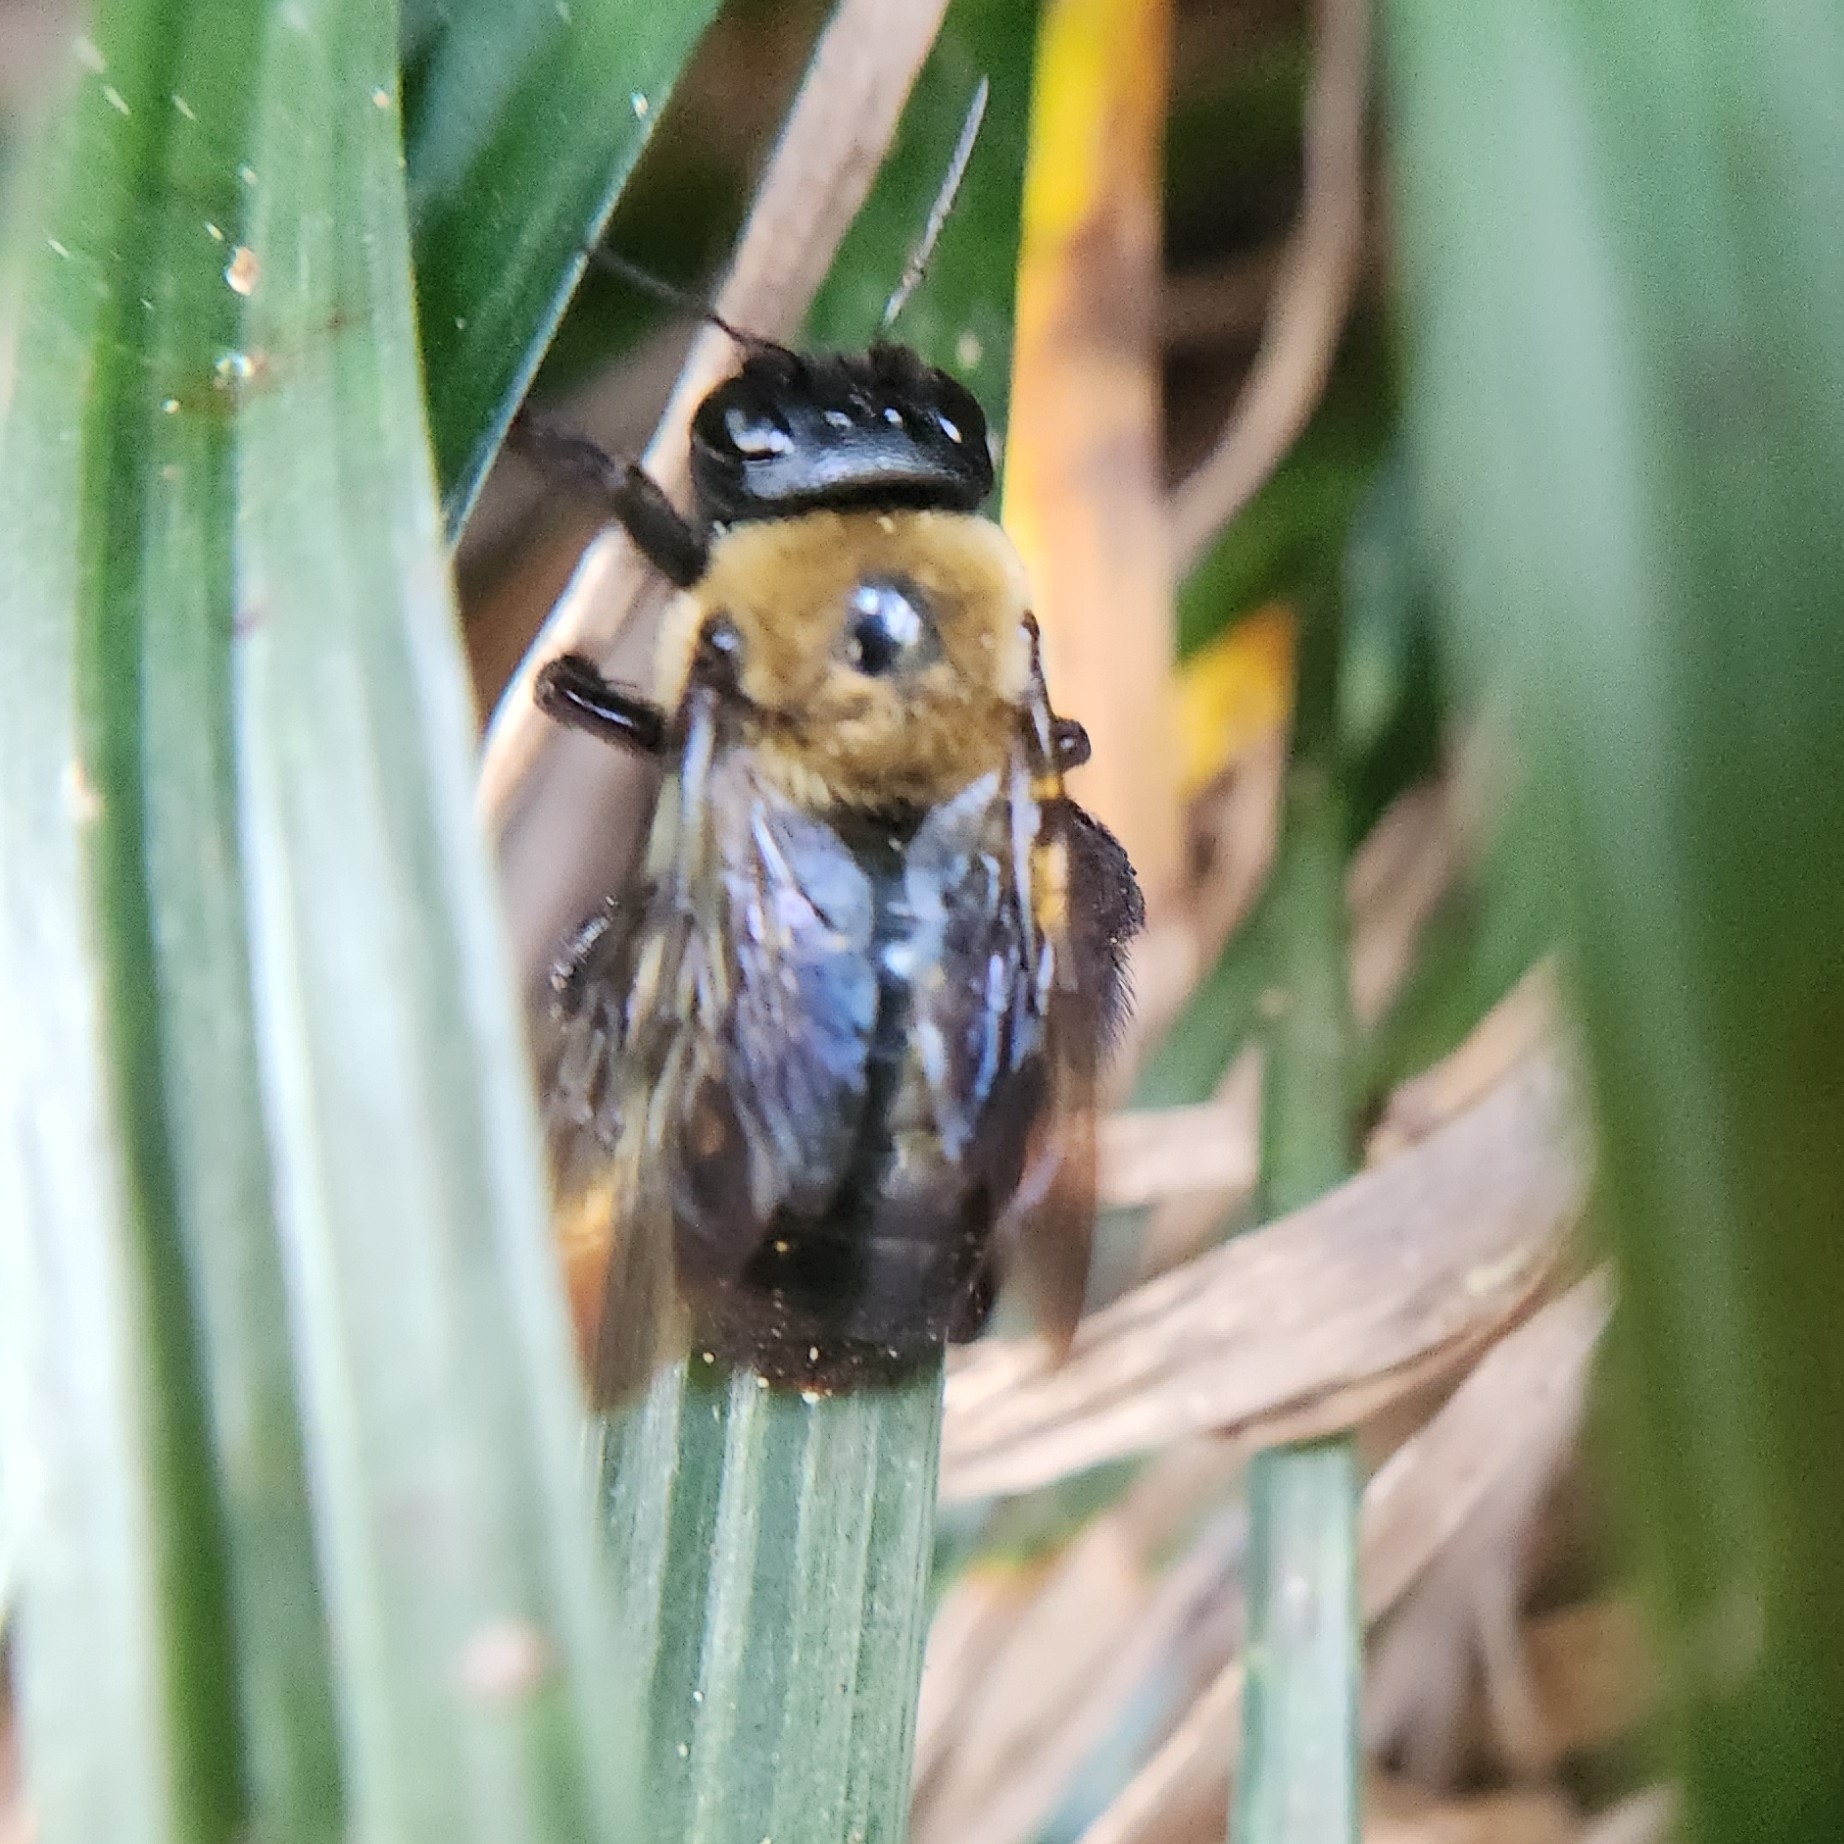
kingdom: Animalia
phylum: Arthropoda
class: Insecta
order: Hymenoptera
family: Apidae
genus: Xylocopa
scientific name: Xylocopa virginica
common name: Carpenter bee
